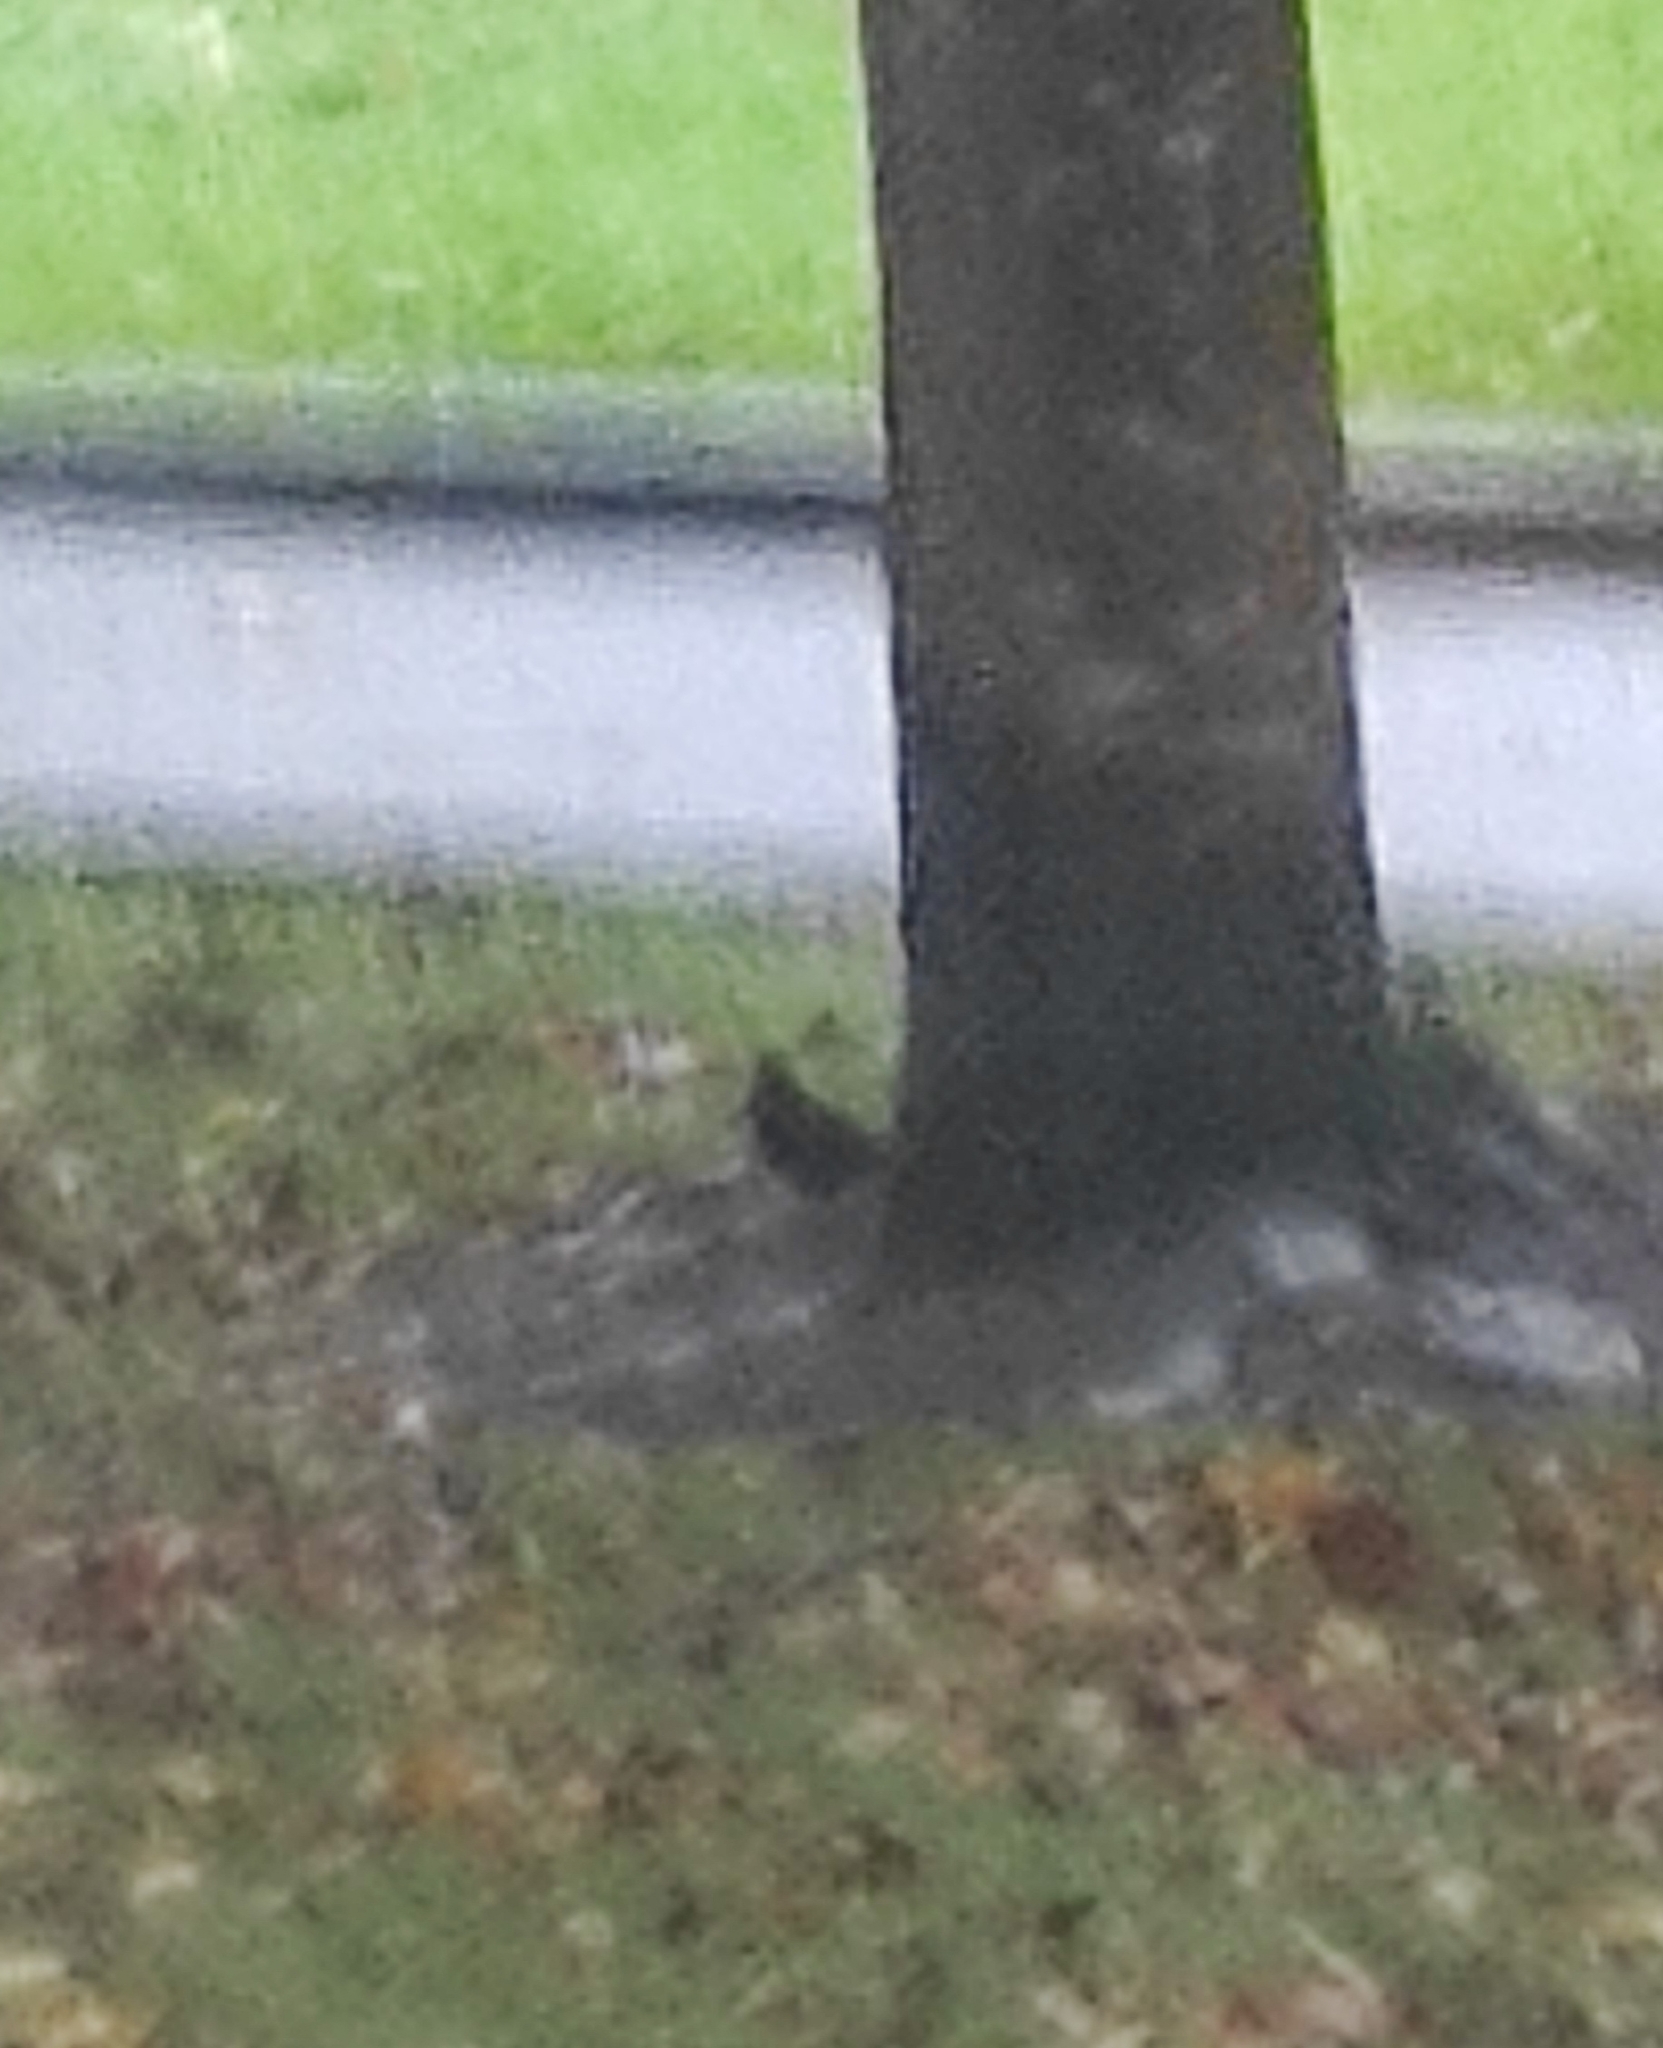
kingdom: Animalia
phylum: Chordata
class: Aves
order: Passeriformes
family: Turdidae
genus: Turdus
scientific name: Turdus merula
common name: Common blackbird
